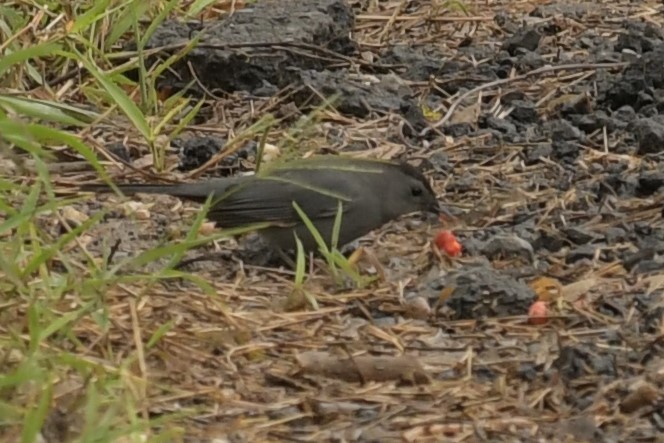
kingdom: Animalia
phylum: Chordata
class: Aves
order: Passeriformes
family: Mimidae
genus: Dumetella
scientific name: Dumetella carolinensis
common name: Gray catbird
